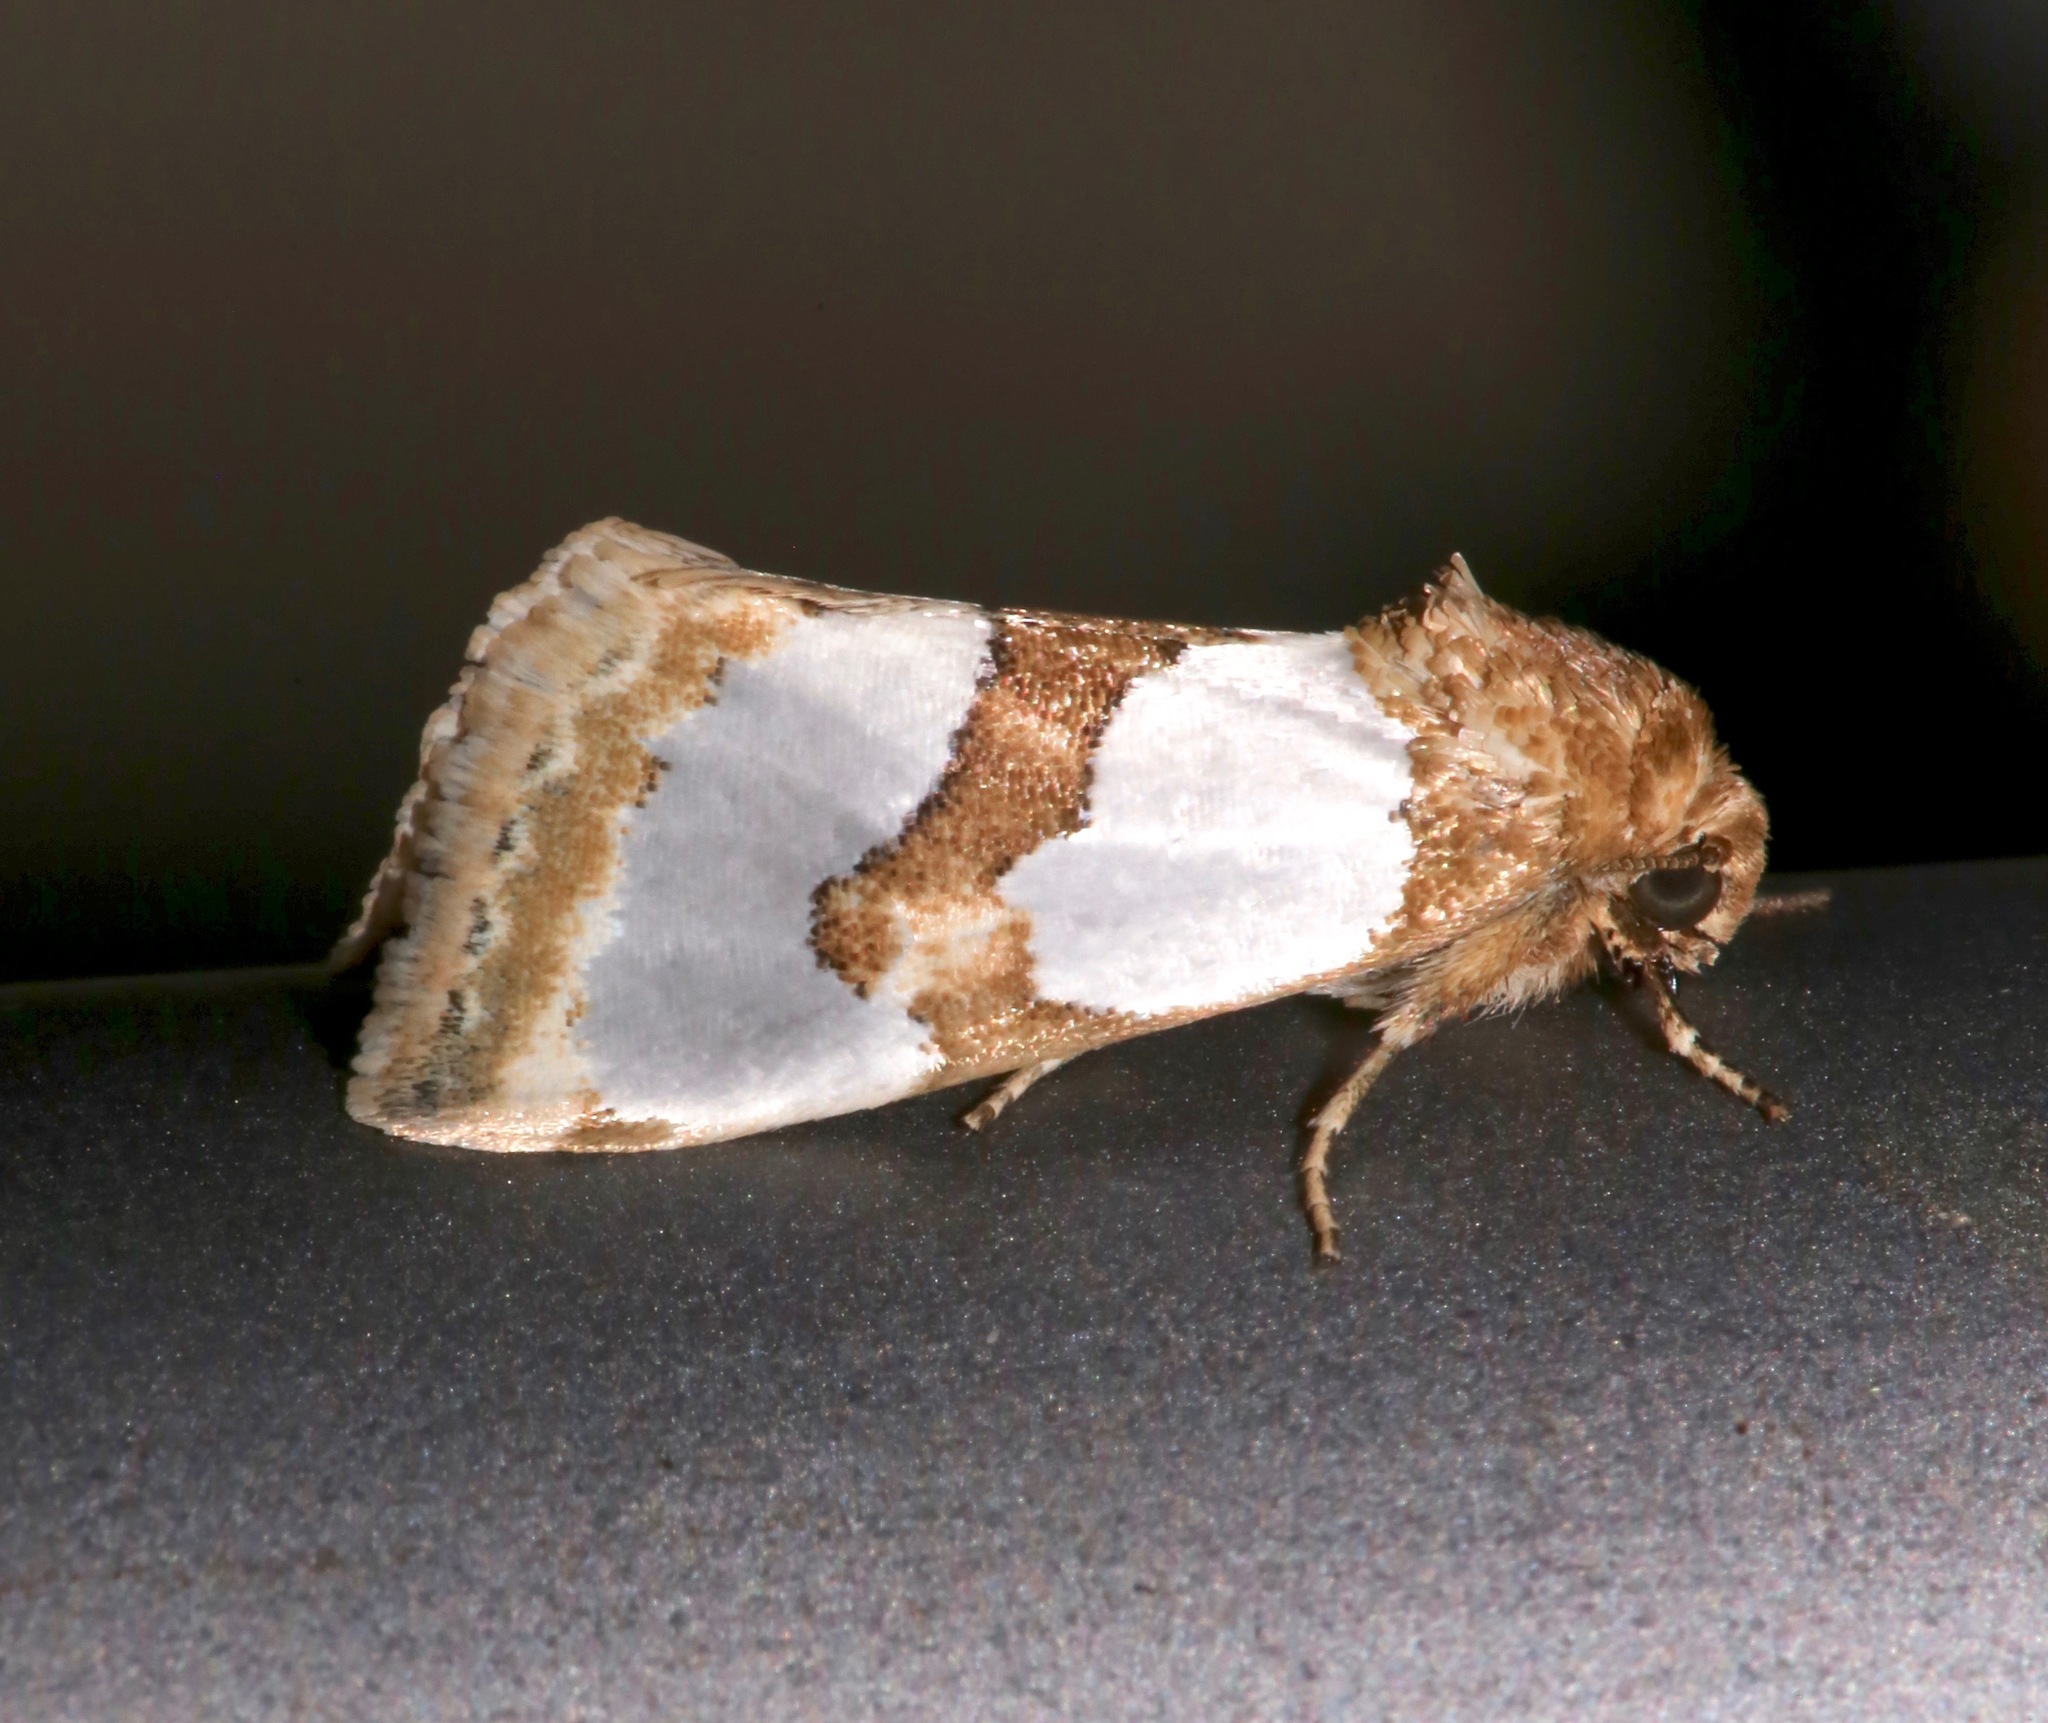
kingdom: Animalia
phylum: Arthropoda
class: Insecta
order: Lepidoptera
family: Noctuidae
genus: Schinia
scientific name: Schinia chrysellus
